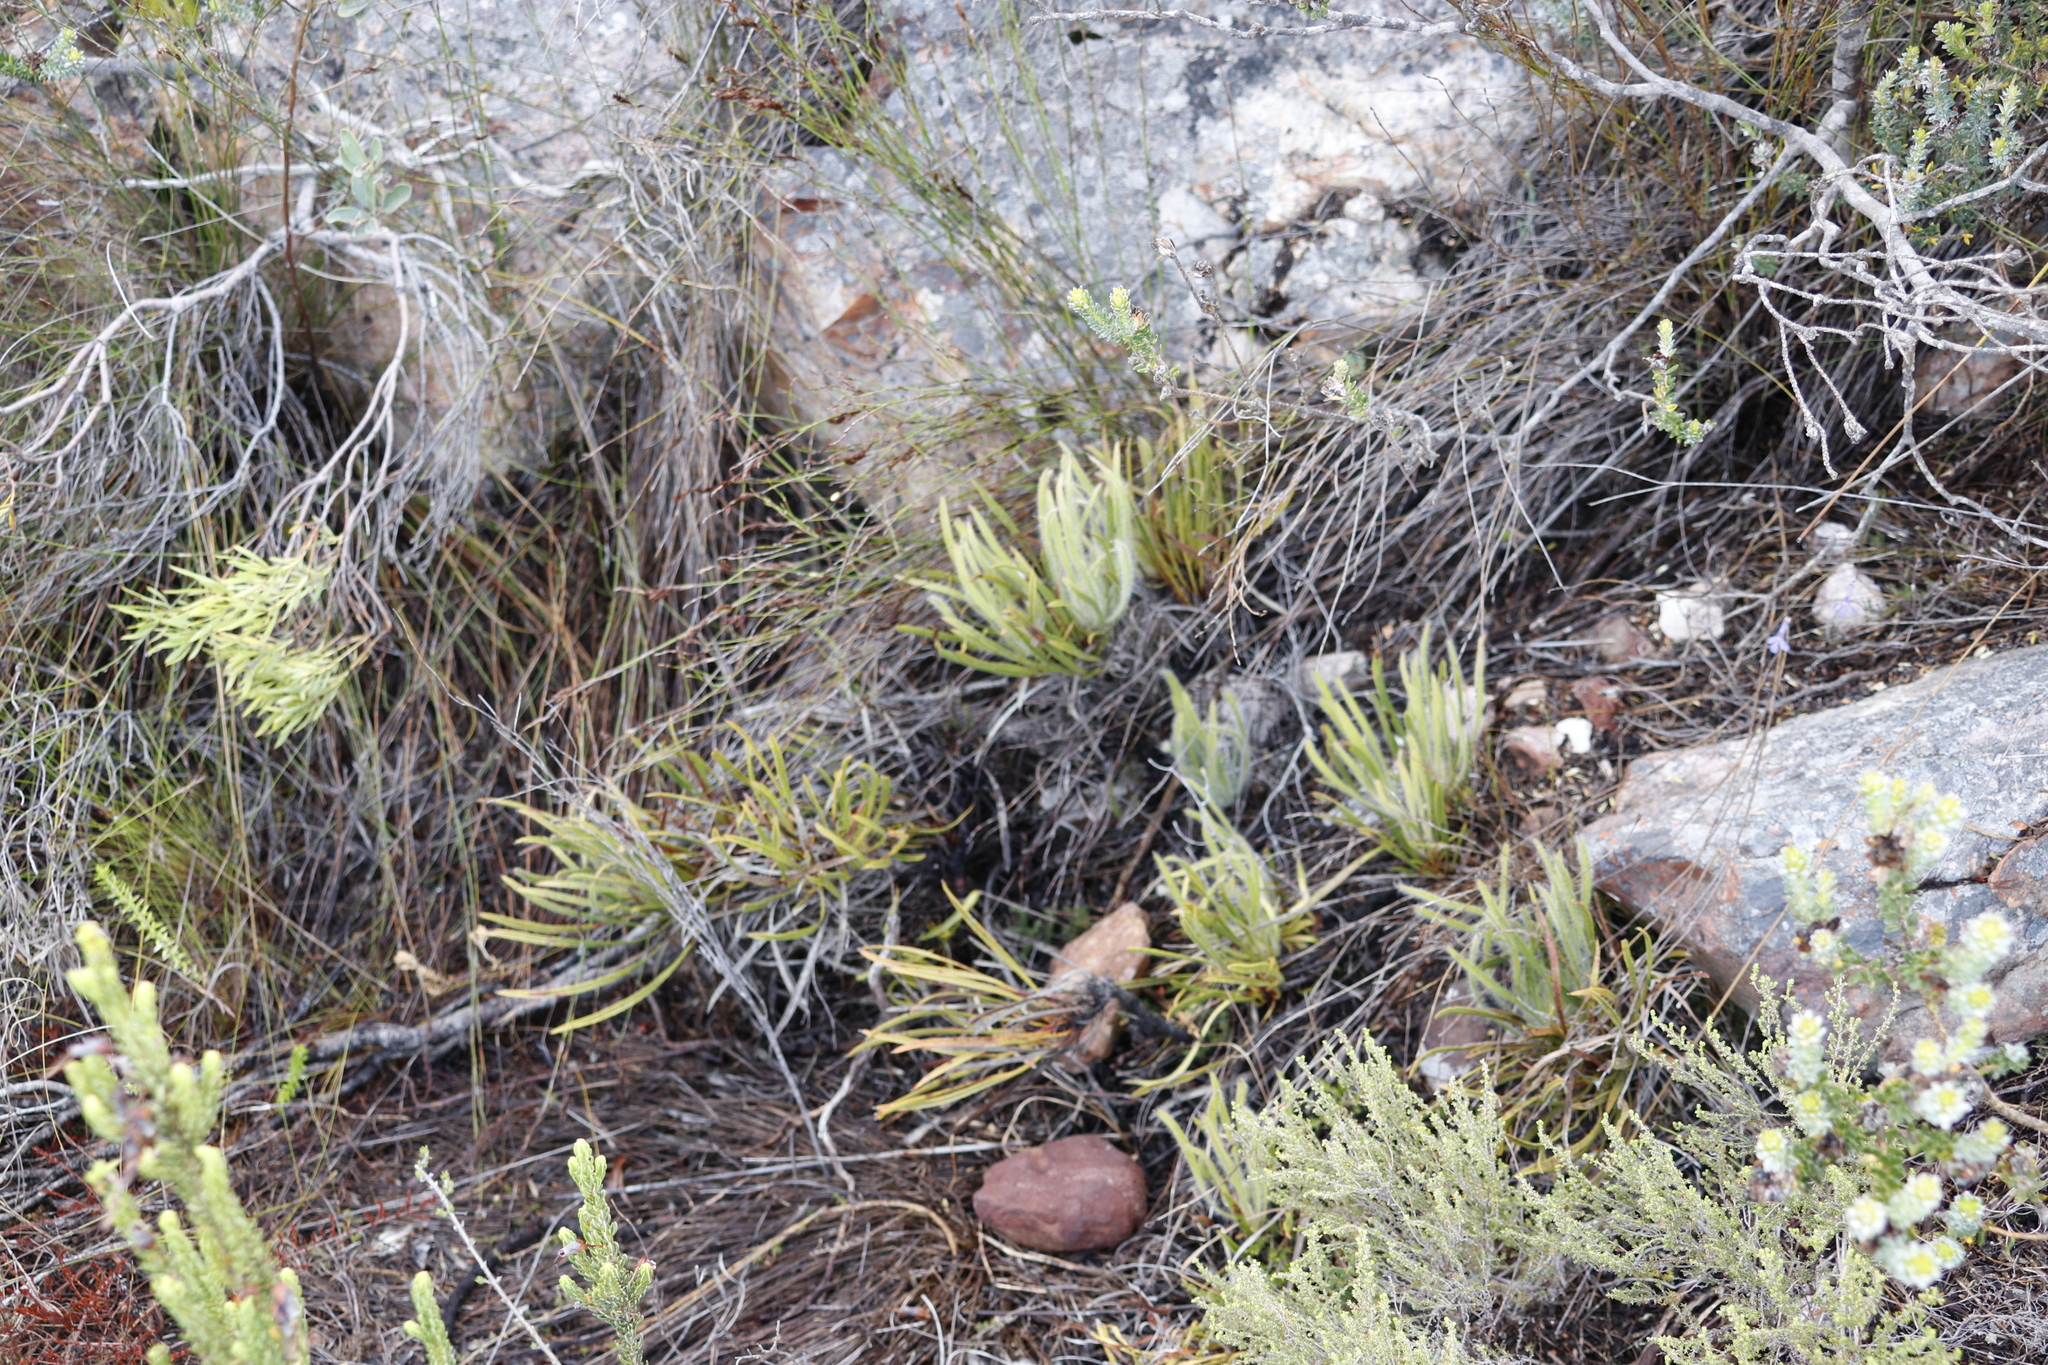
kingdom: Plantae
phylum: Tracheophyta
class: Magnoliopsida
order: Proteales
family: Proteaceae
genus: Protea
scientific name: Protea denticulata
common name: Tooth-leaf sugarbush
